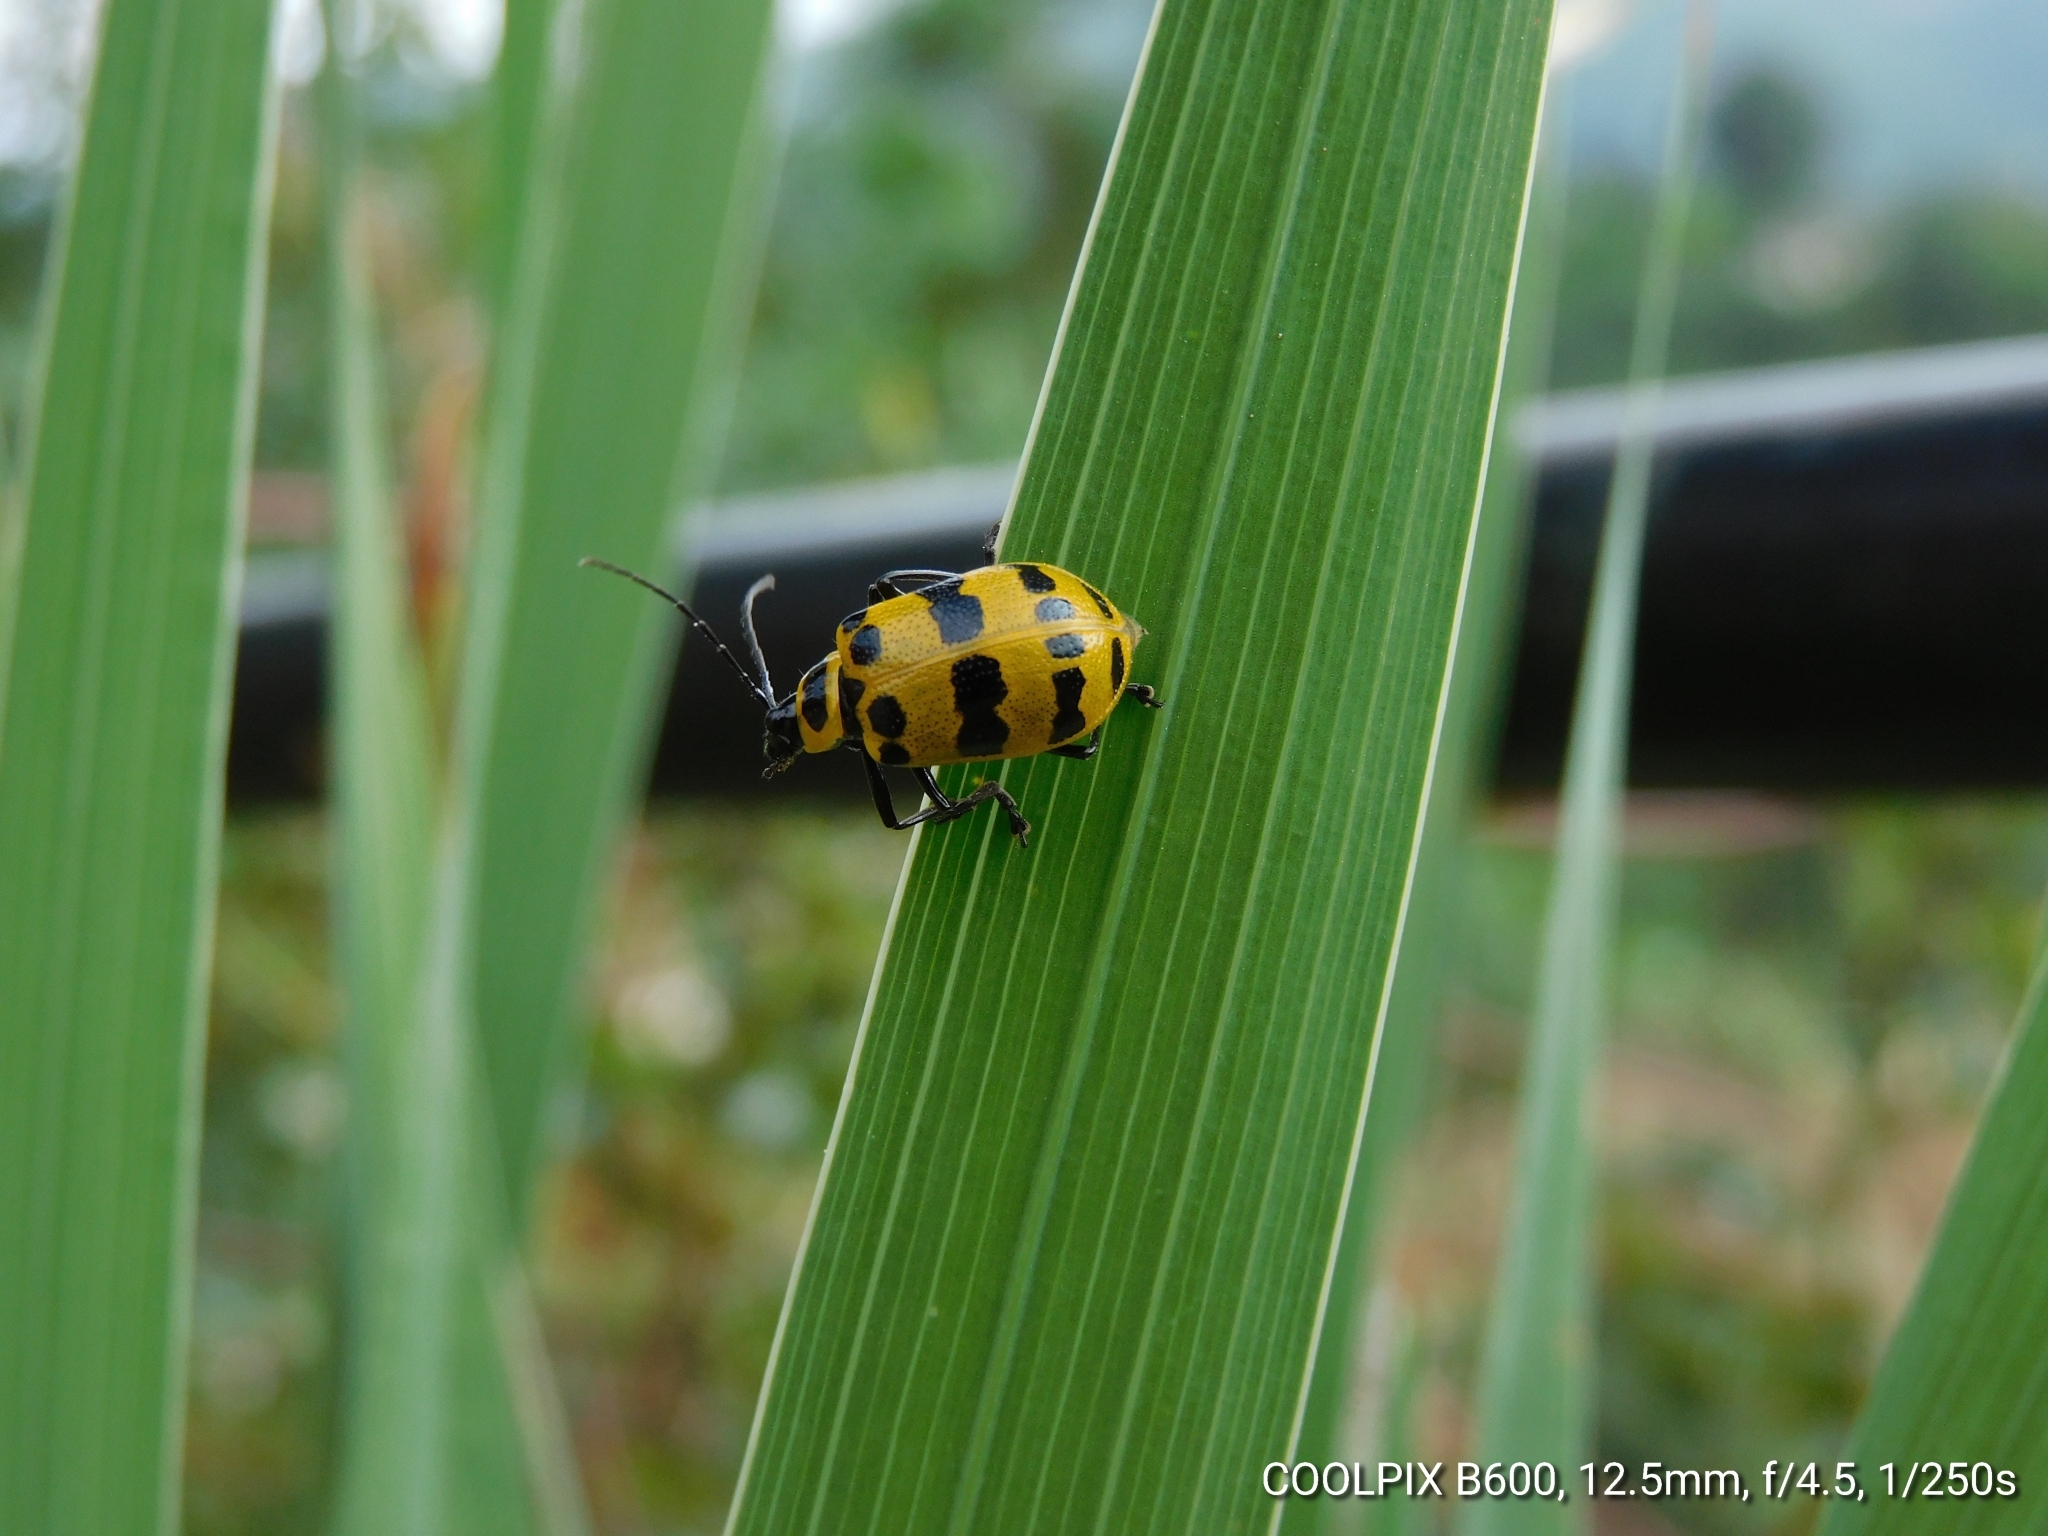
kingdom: Animalia
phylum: Arthropoda
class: Insecta
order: Coleoptera
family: Chrysomelidae
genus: Meristata
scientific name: Meristata quadrifasciata
